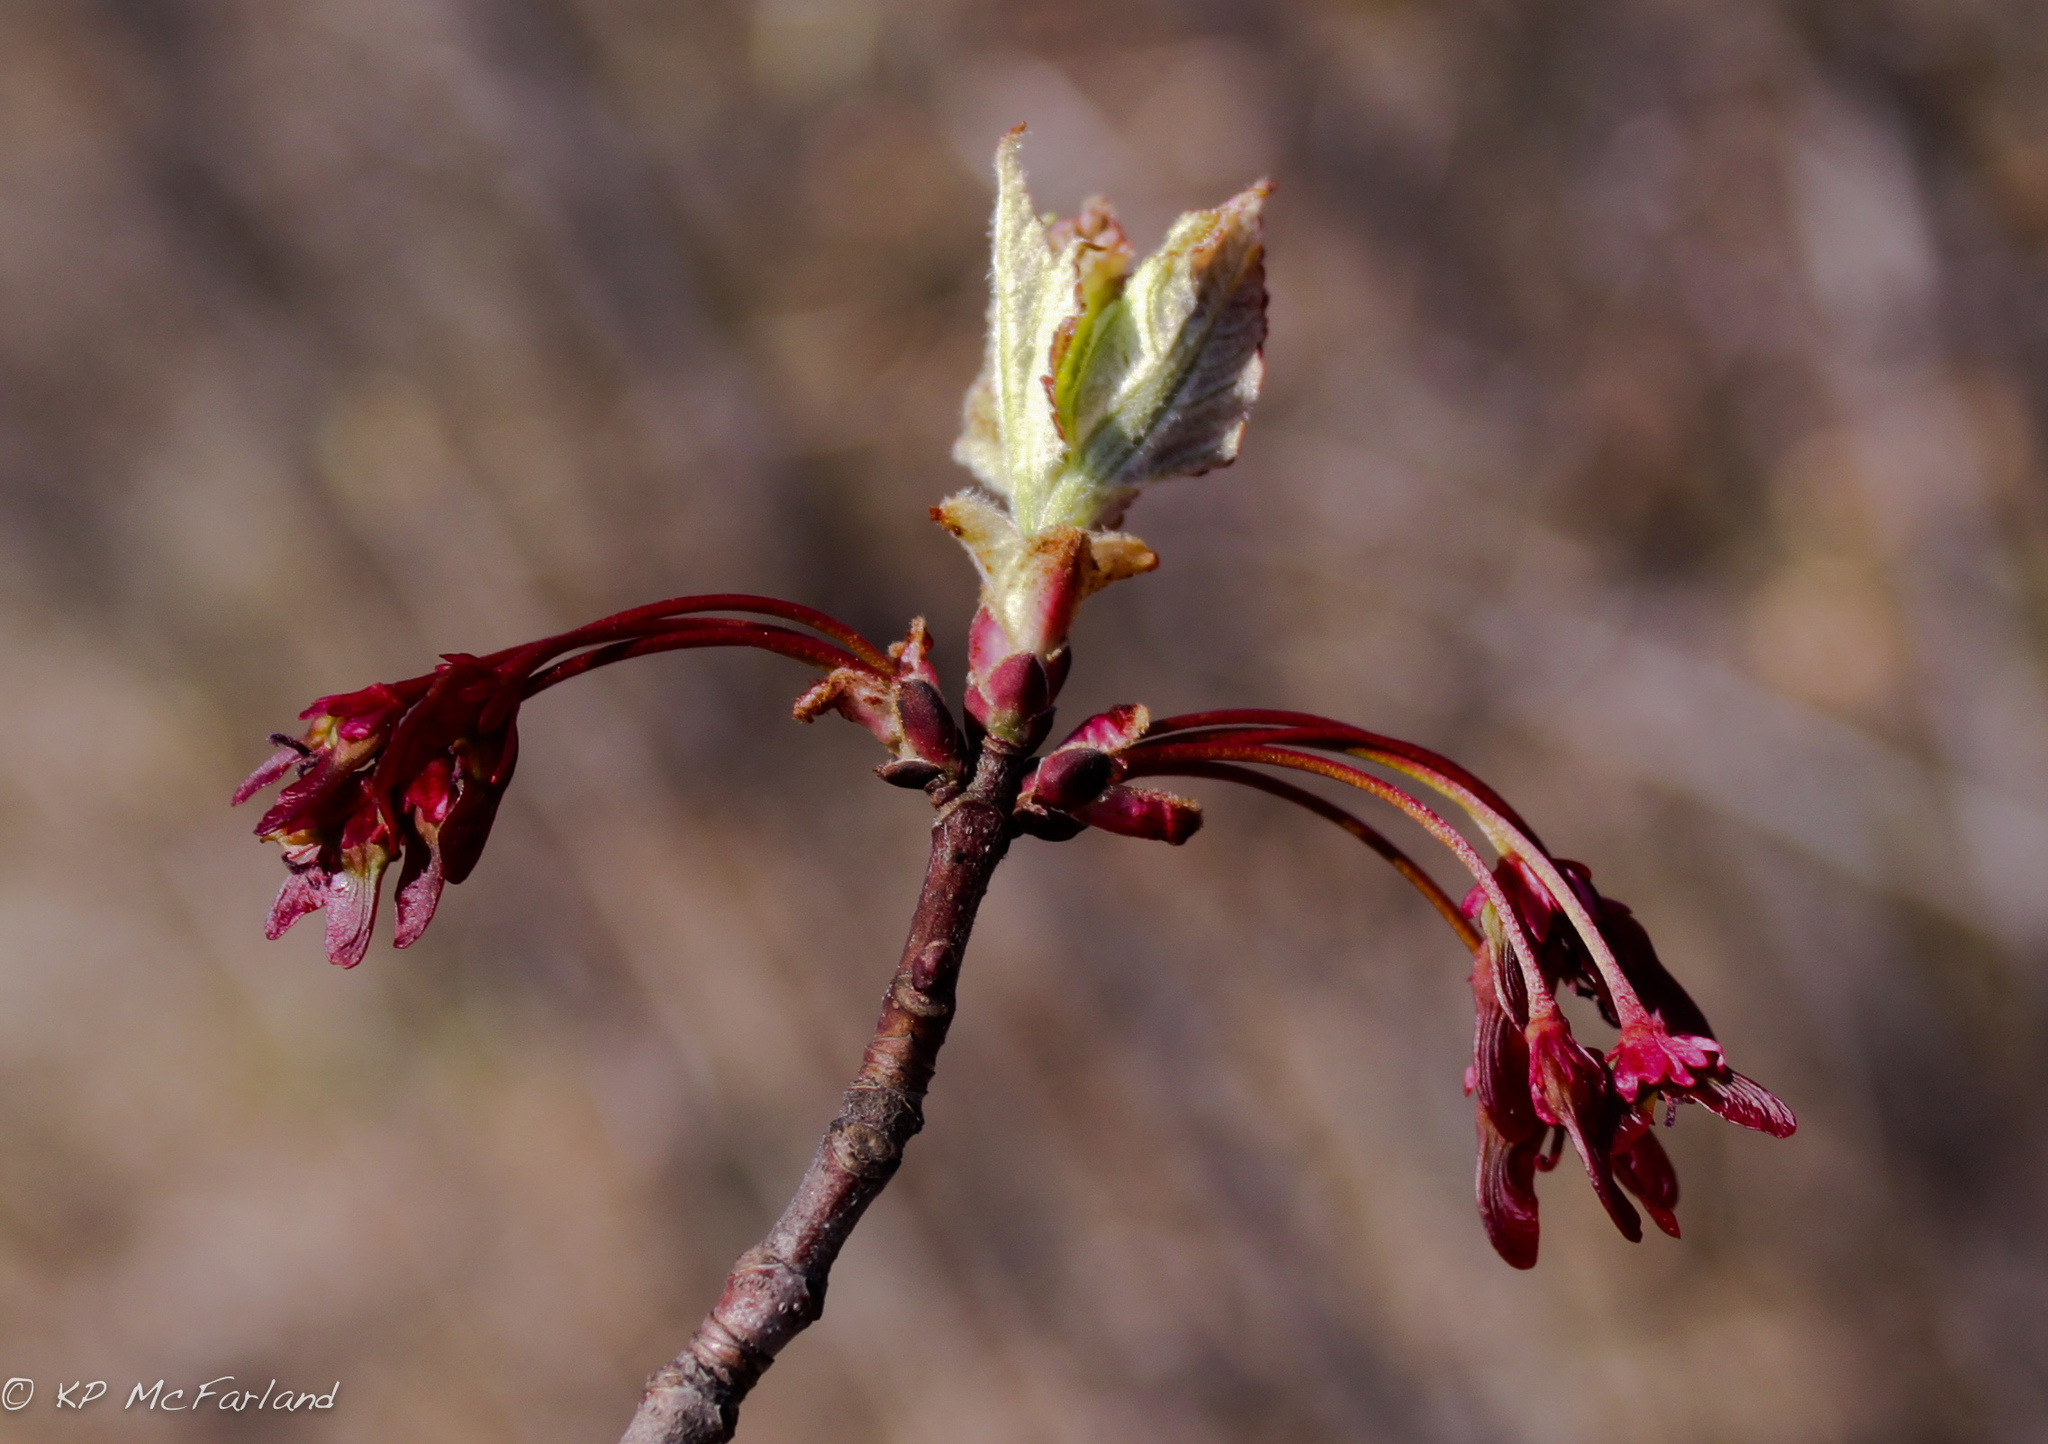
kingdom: Plantae
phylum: Tracheophyta
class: Magnoliopsida
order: Sapindales
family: Sapindaceae
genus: Acer
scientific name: Acer rubrum
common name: Red maple
